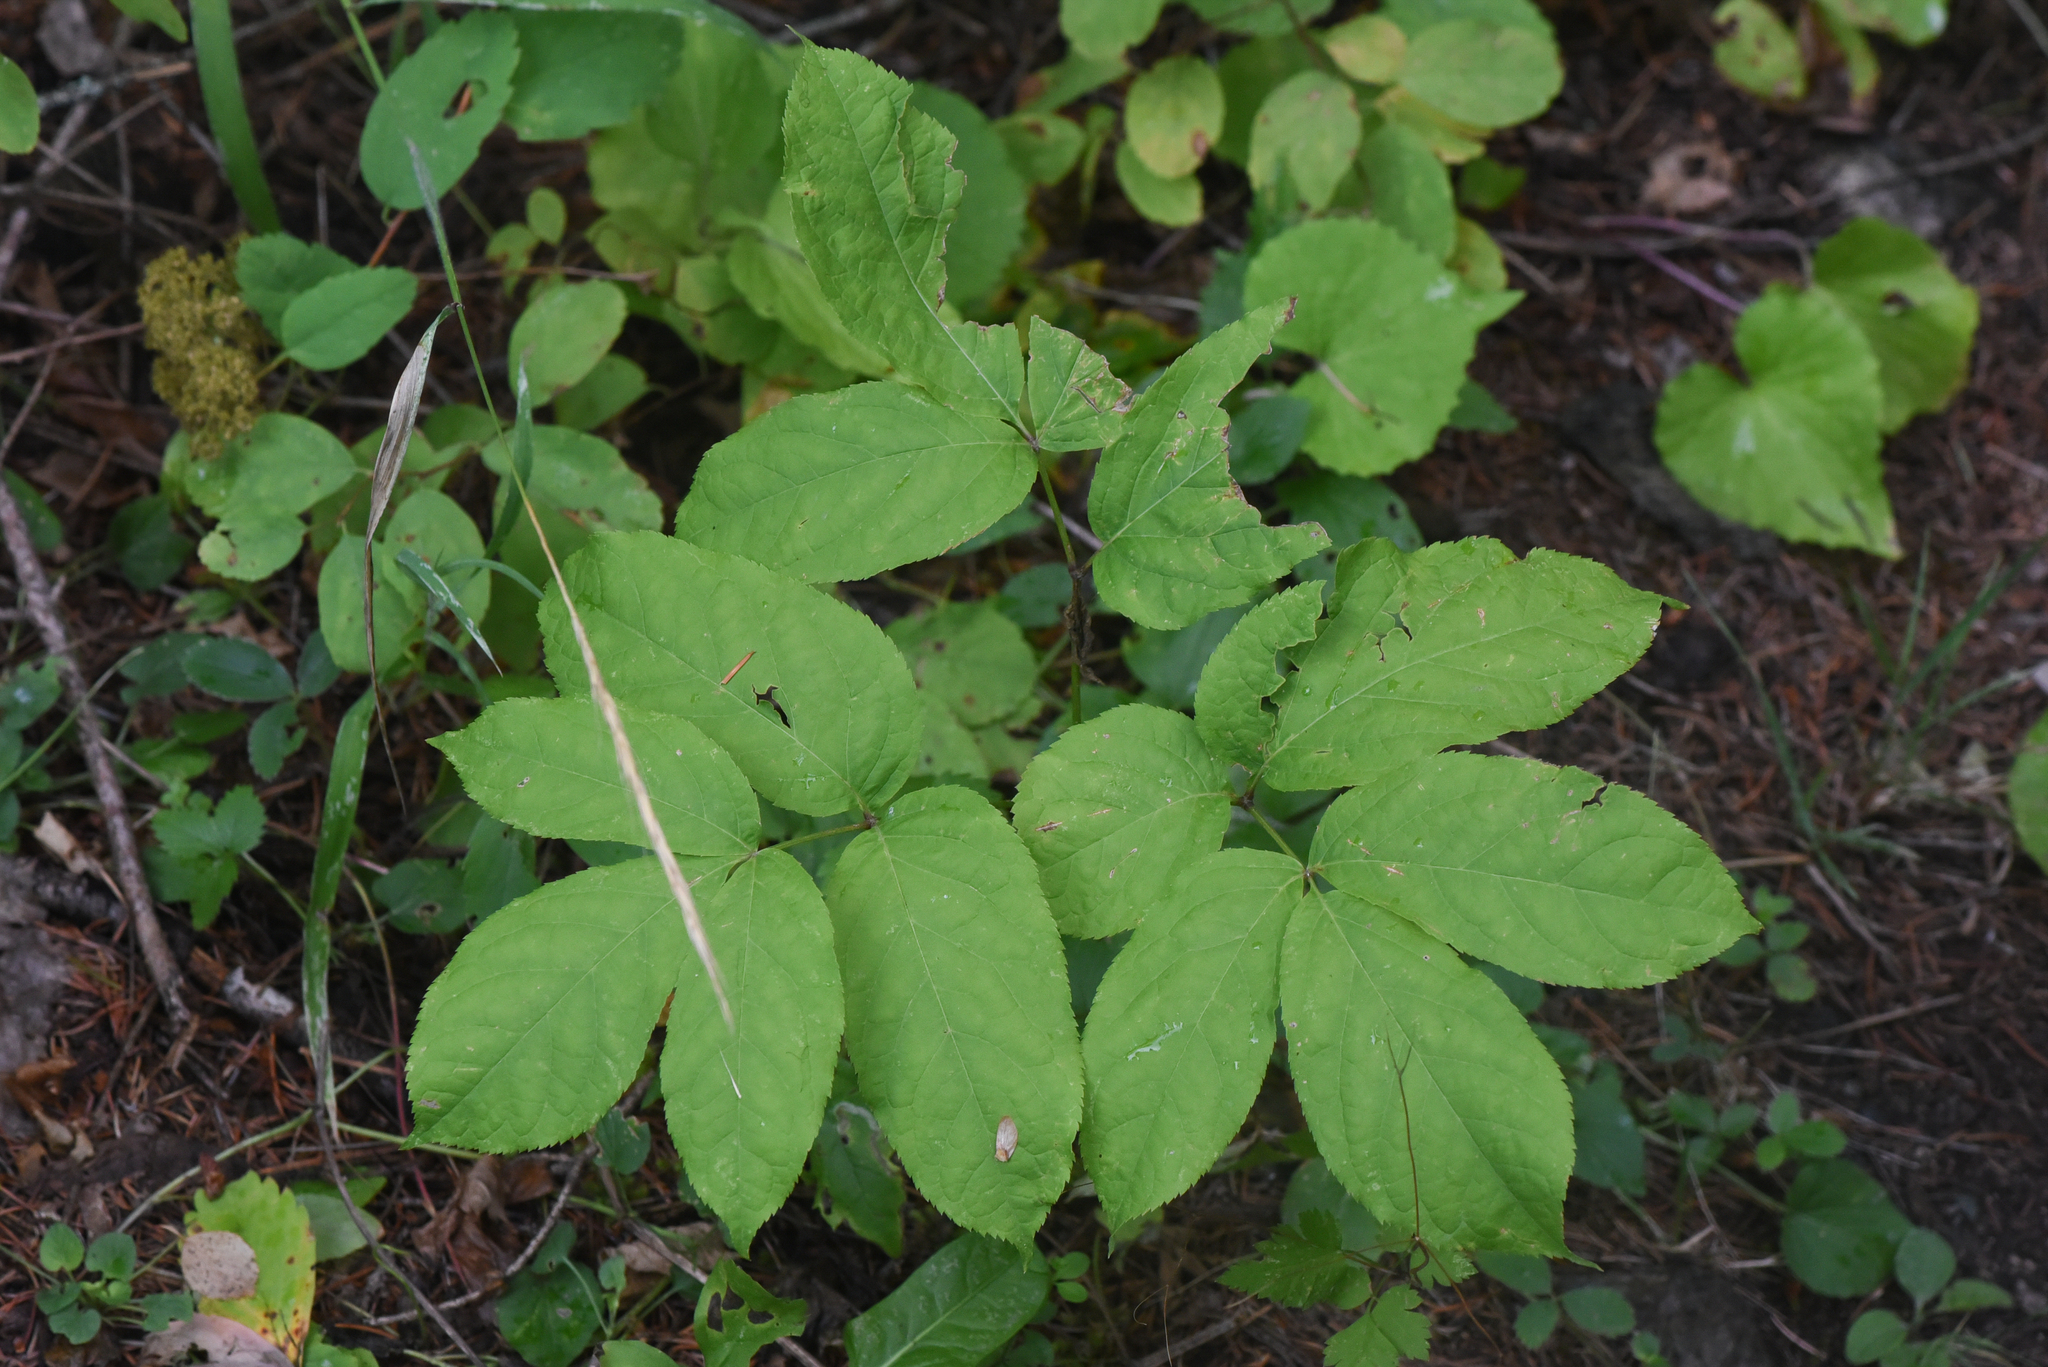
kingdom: Plantae
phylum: Tracheophyta
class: Magnoliopsida
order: Apiales
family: Araliaceae
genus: Aralia
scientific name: Aralia nudicaulis
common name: Wild sarsaparilla
